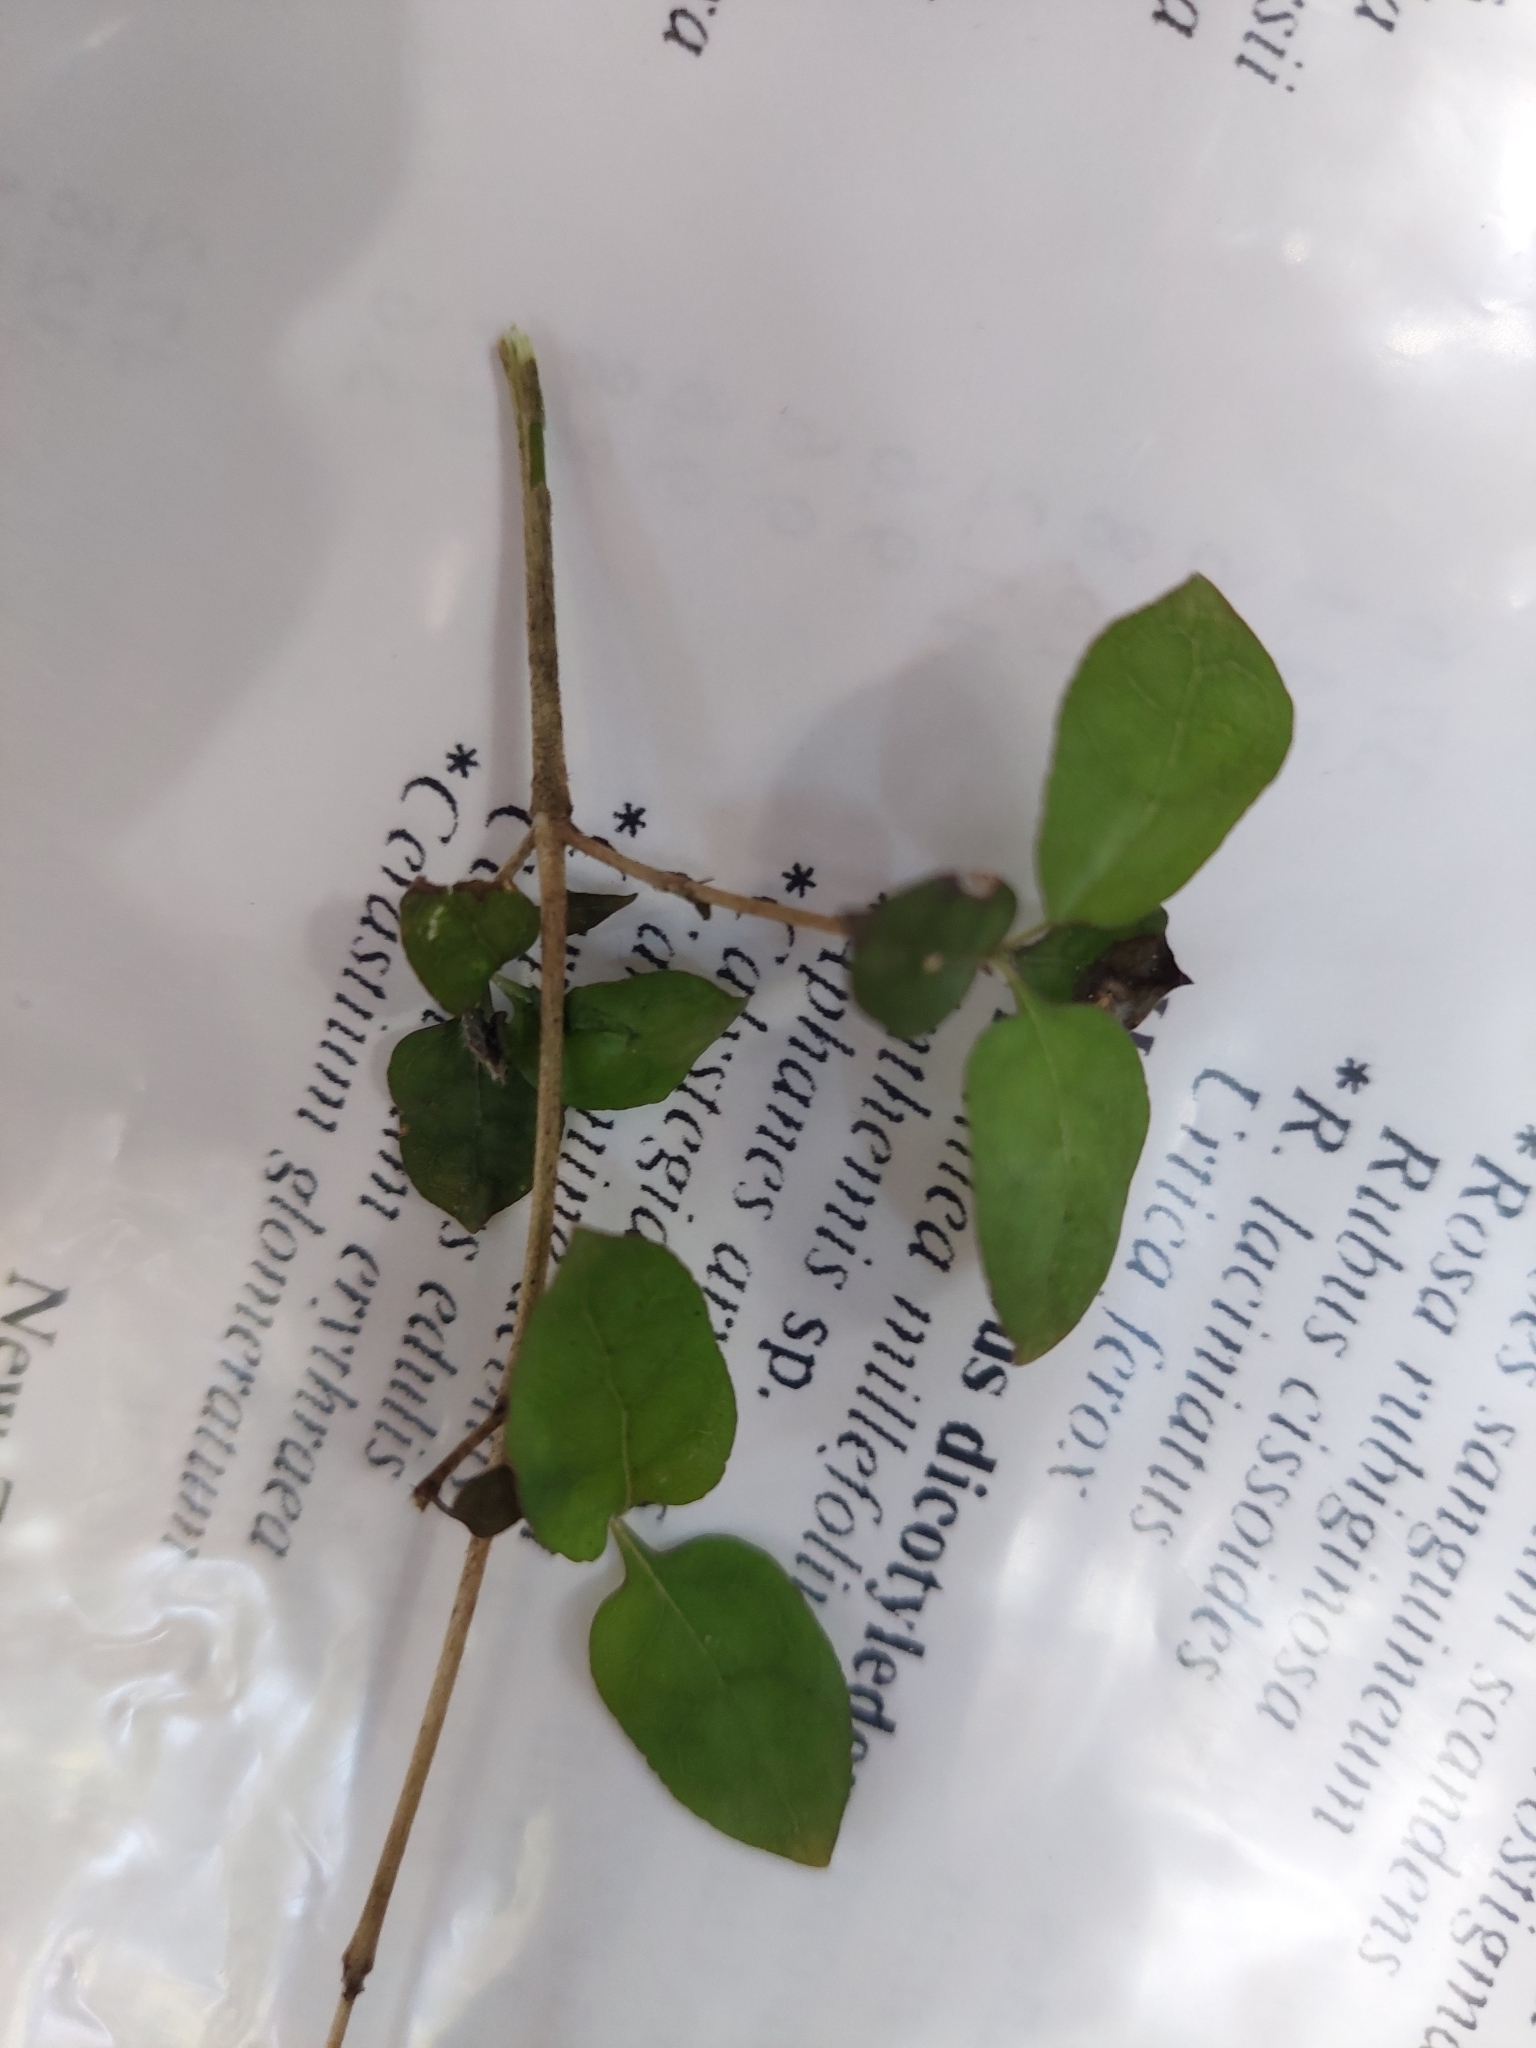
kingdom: Plantae
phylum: Tracheophyta
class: Magnoliopsida
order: Gentianales
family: Rubiaceae
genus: Coprosma
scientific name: Coprosma rotundifolia
